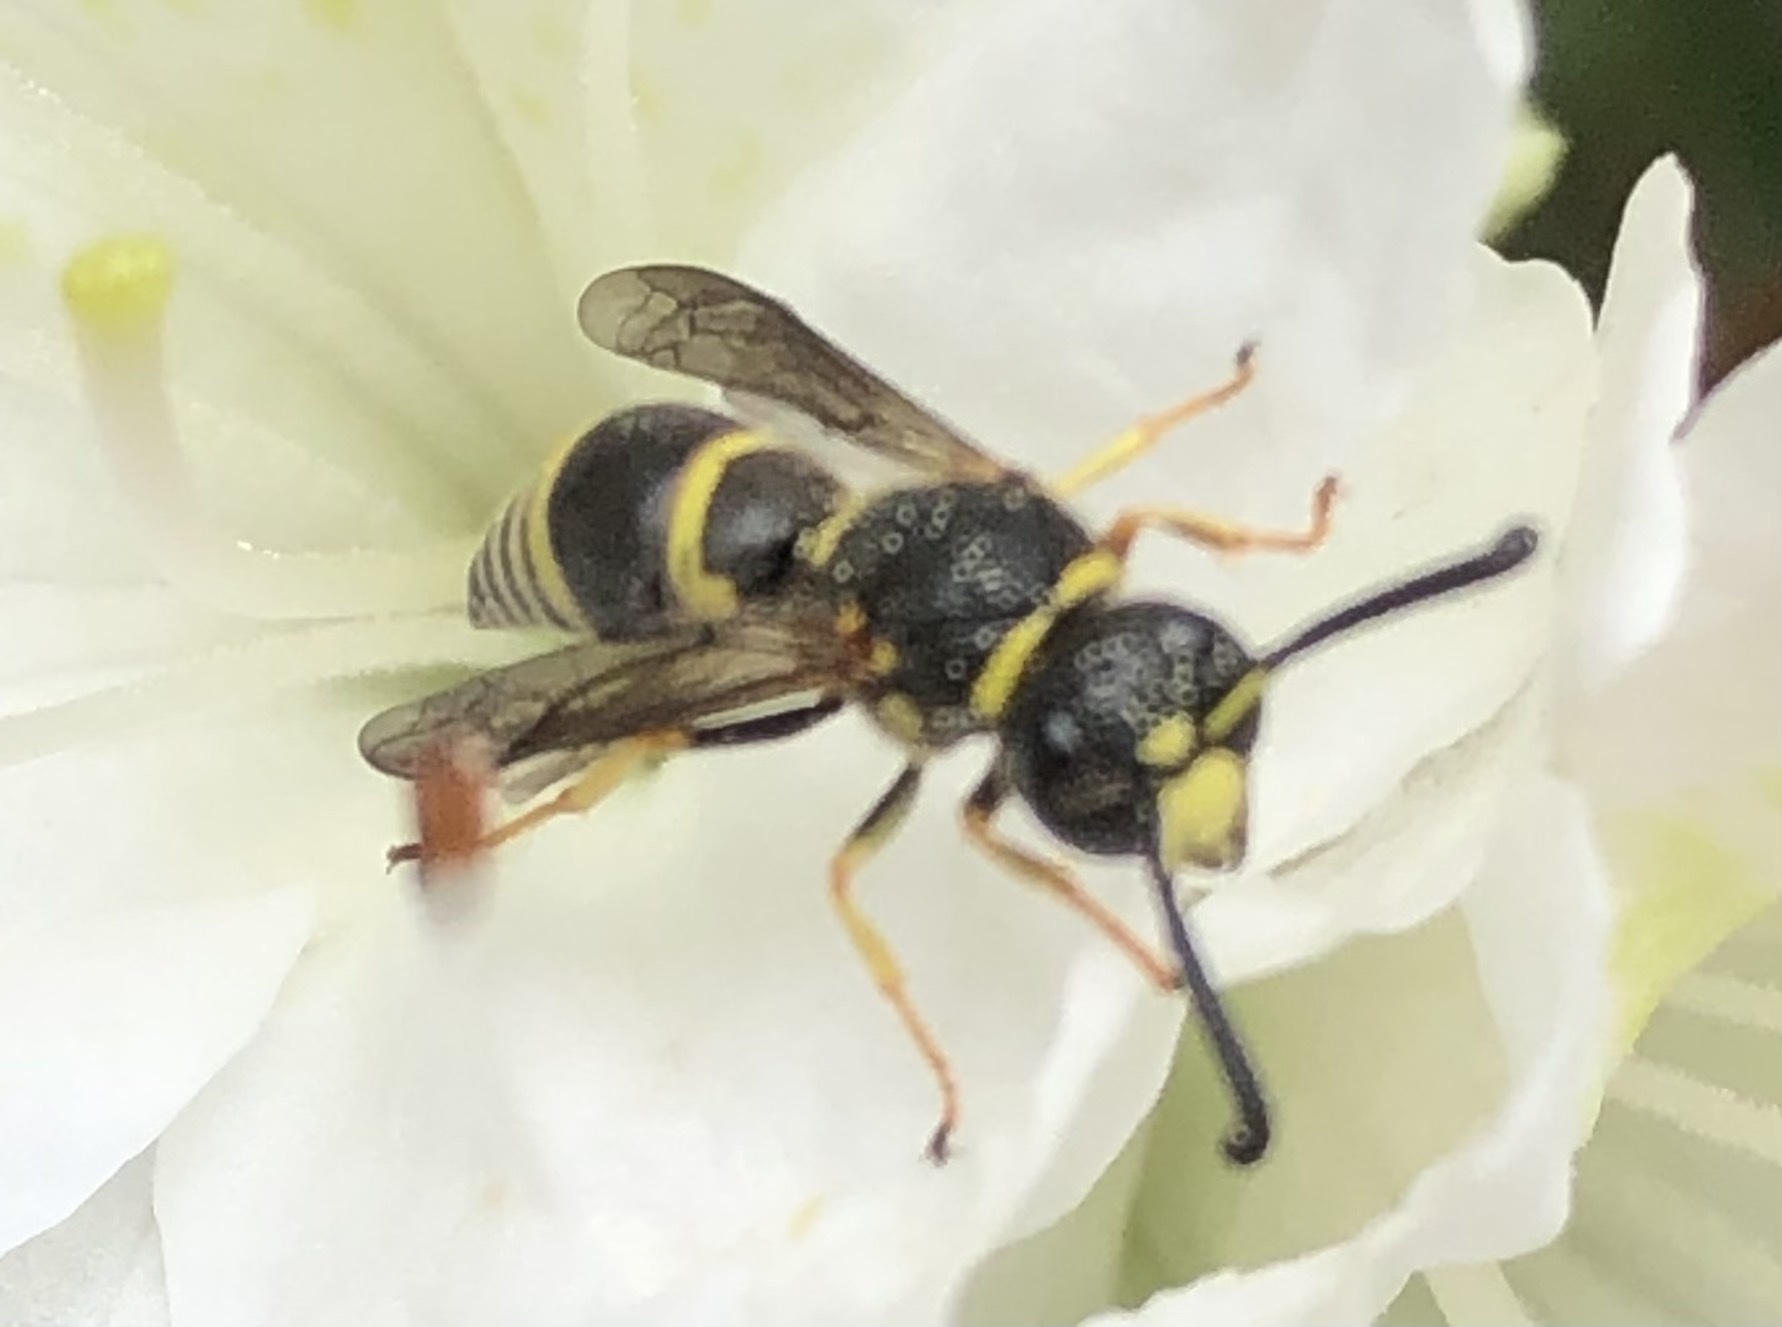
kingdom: Animalia
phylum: Arthropoda
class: Insecta
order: Hymenoptera
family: Eumenidae
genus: Euodynerus
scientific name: Euodynerus foraminatus
